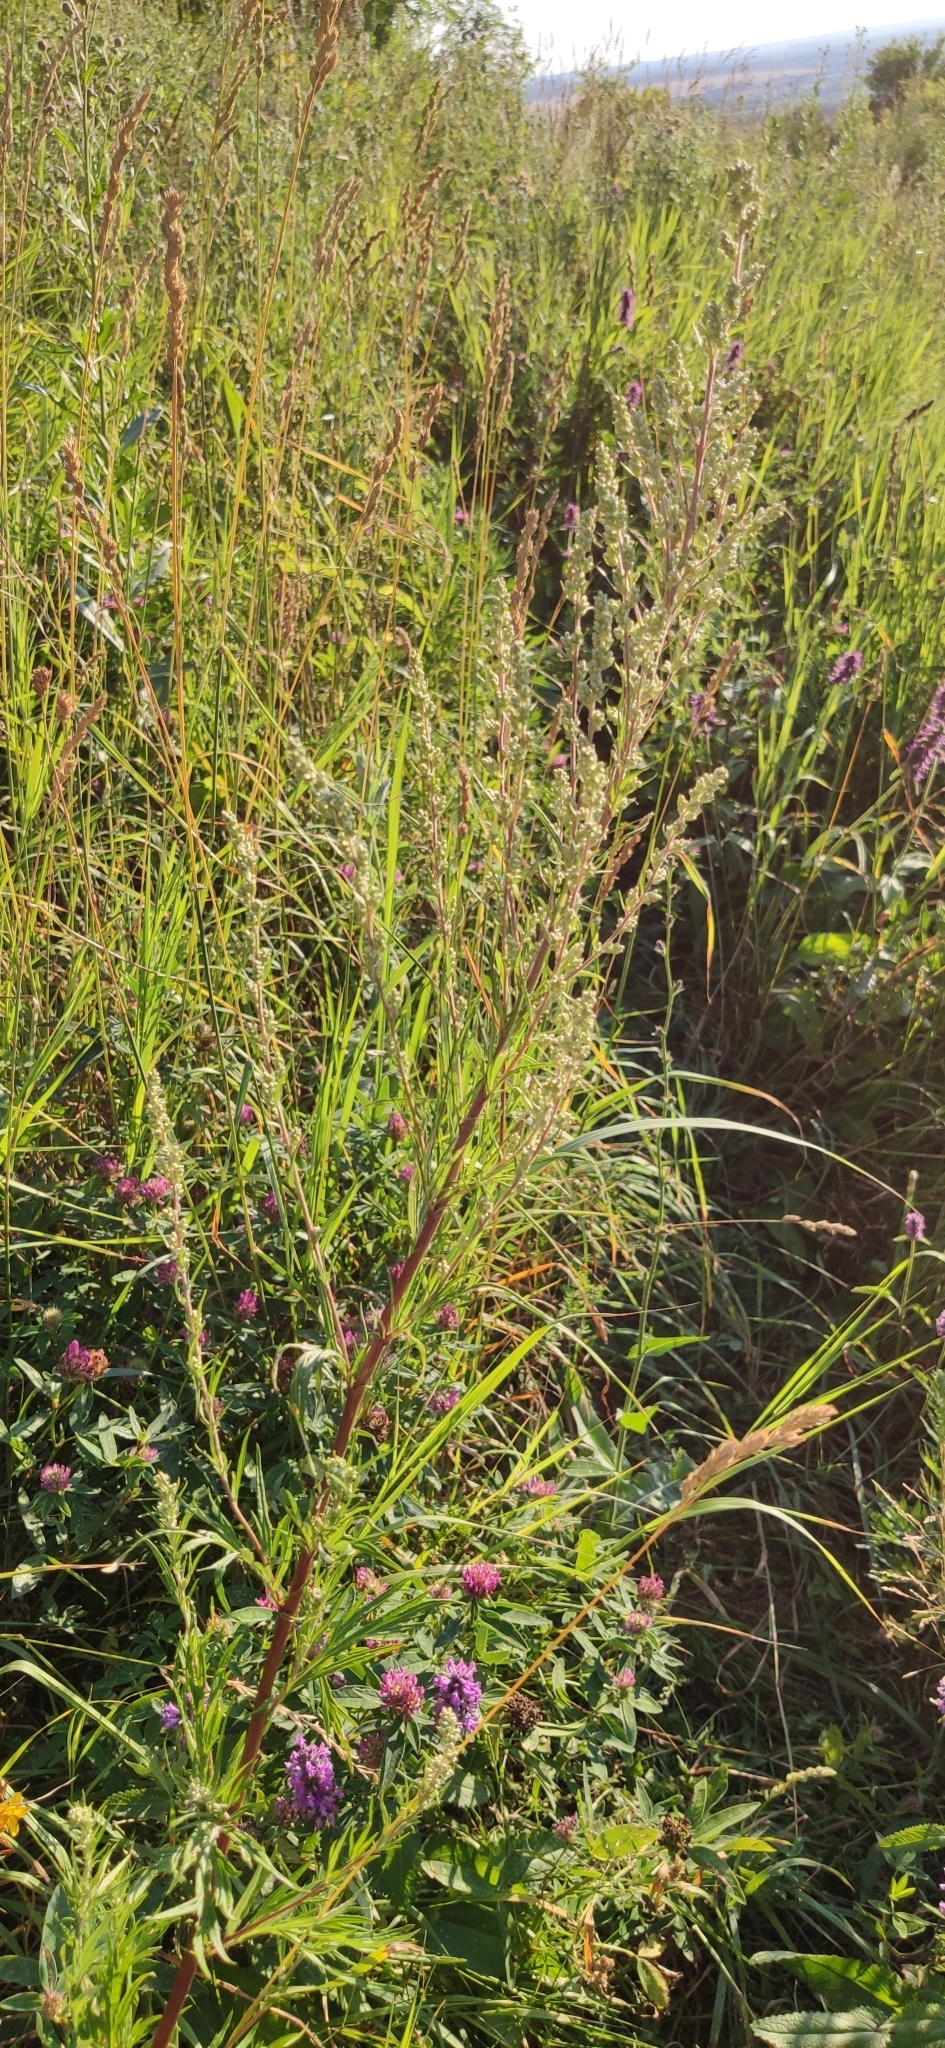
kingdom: Plantae
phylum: Tracheophyta
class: Magnoliopsida
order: Asterales
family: Asteraceae
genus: Artemisia
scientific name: Artemisia vulgaris
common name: Mugwort
